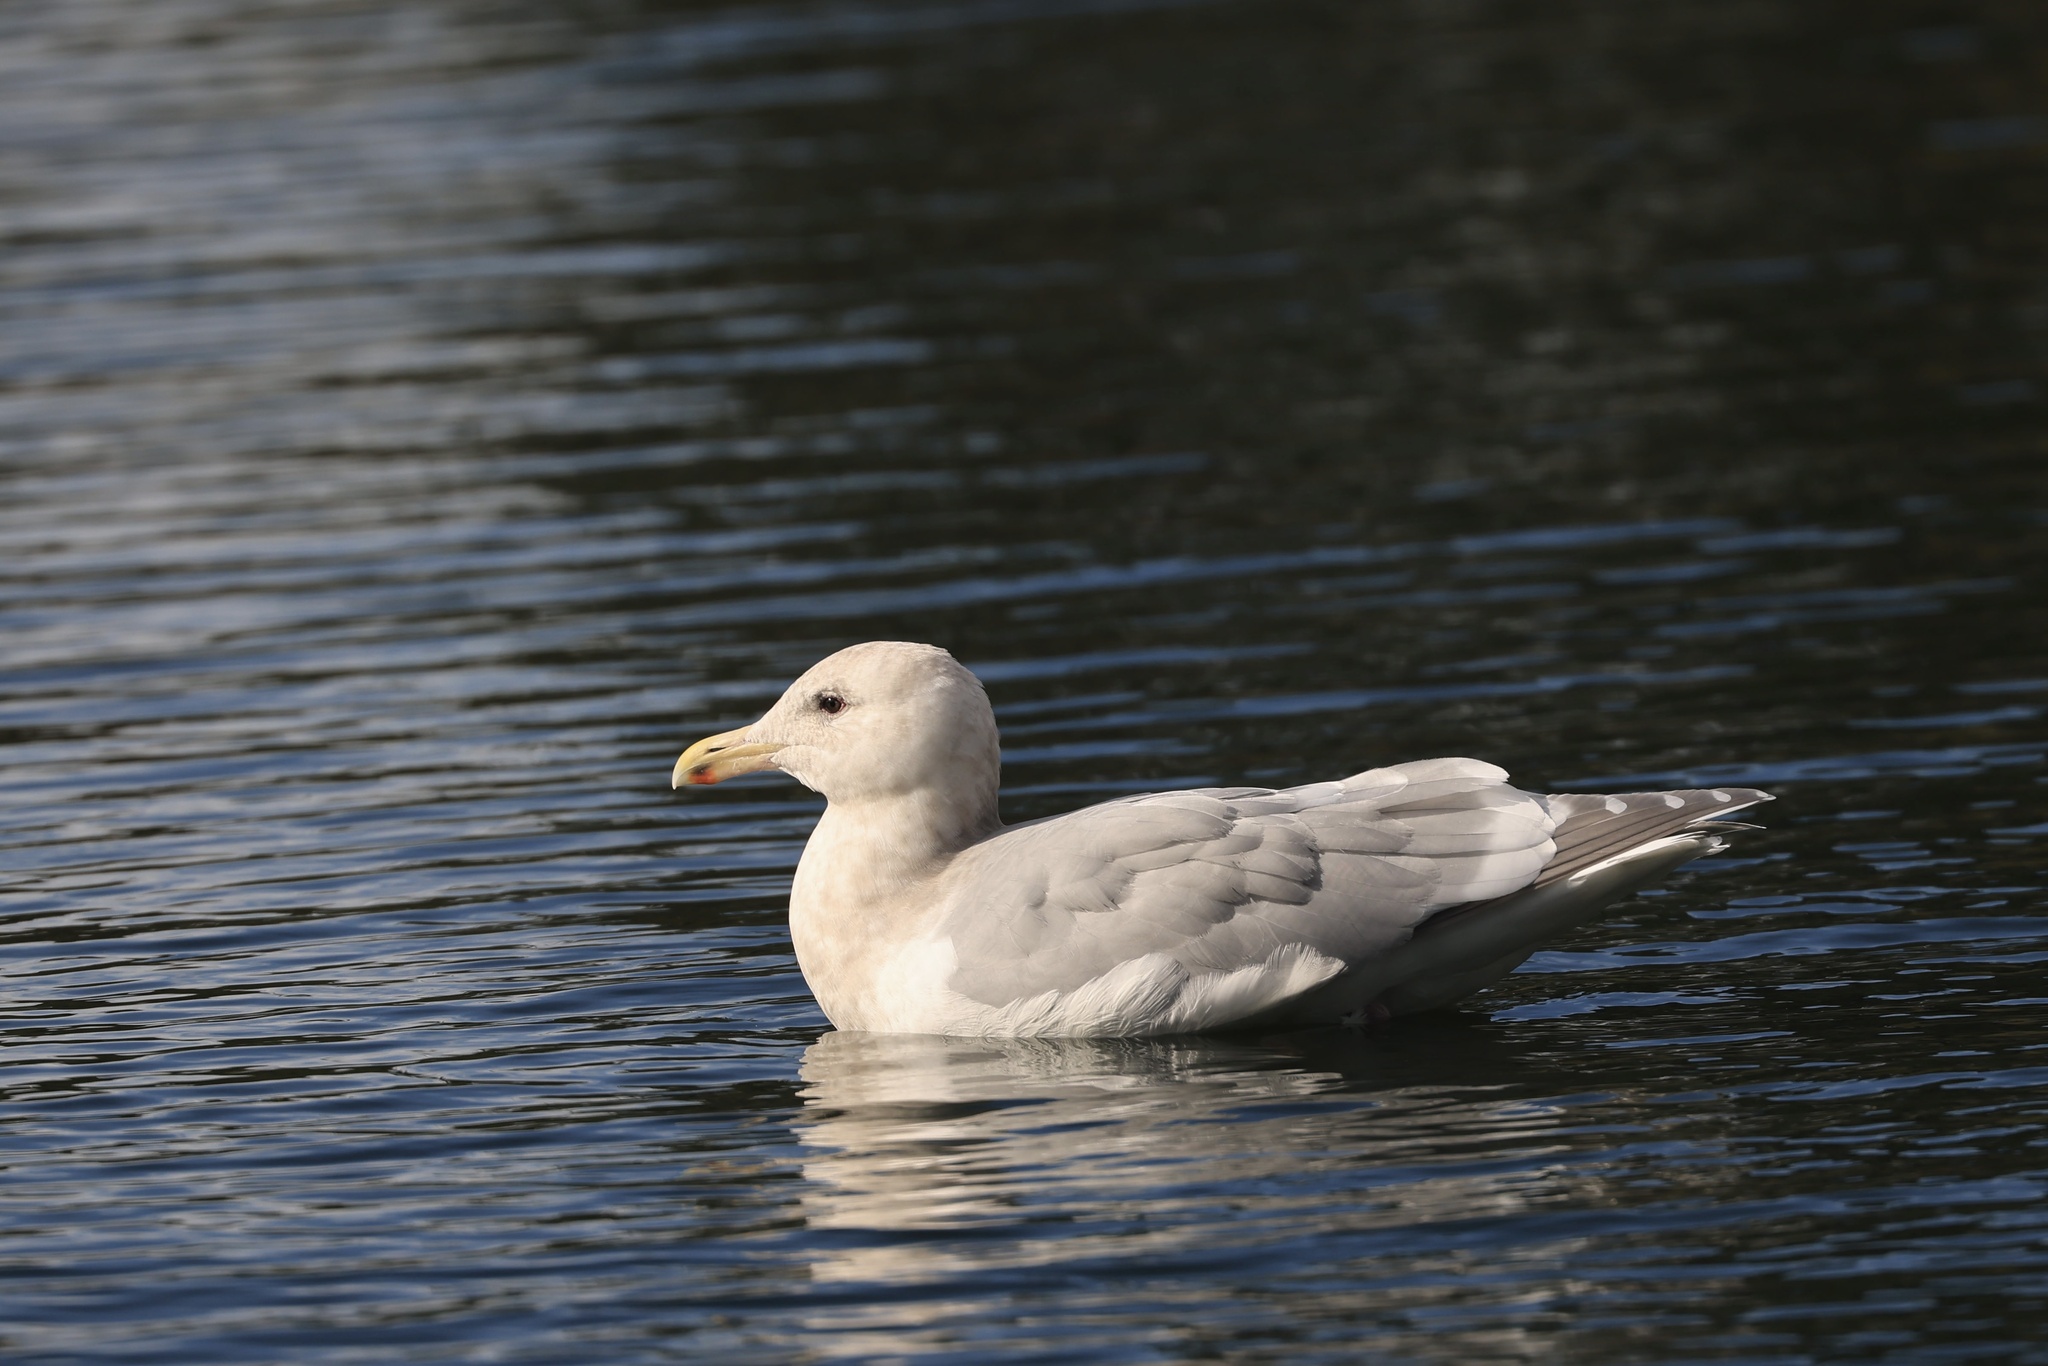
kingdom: Animalia
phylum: Chordata
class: Aves
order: Charadriiformes
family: Laridae
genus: Larus
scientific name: Larus glaucescens
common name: Glaucous-winged gull
